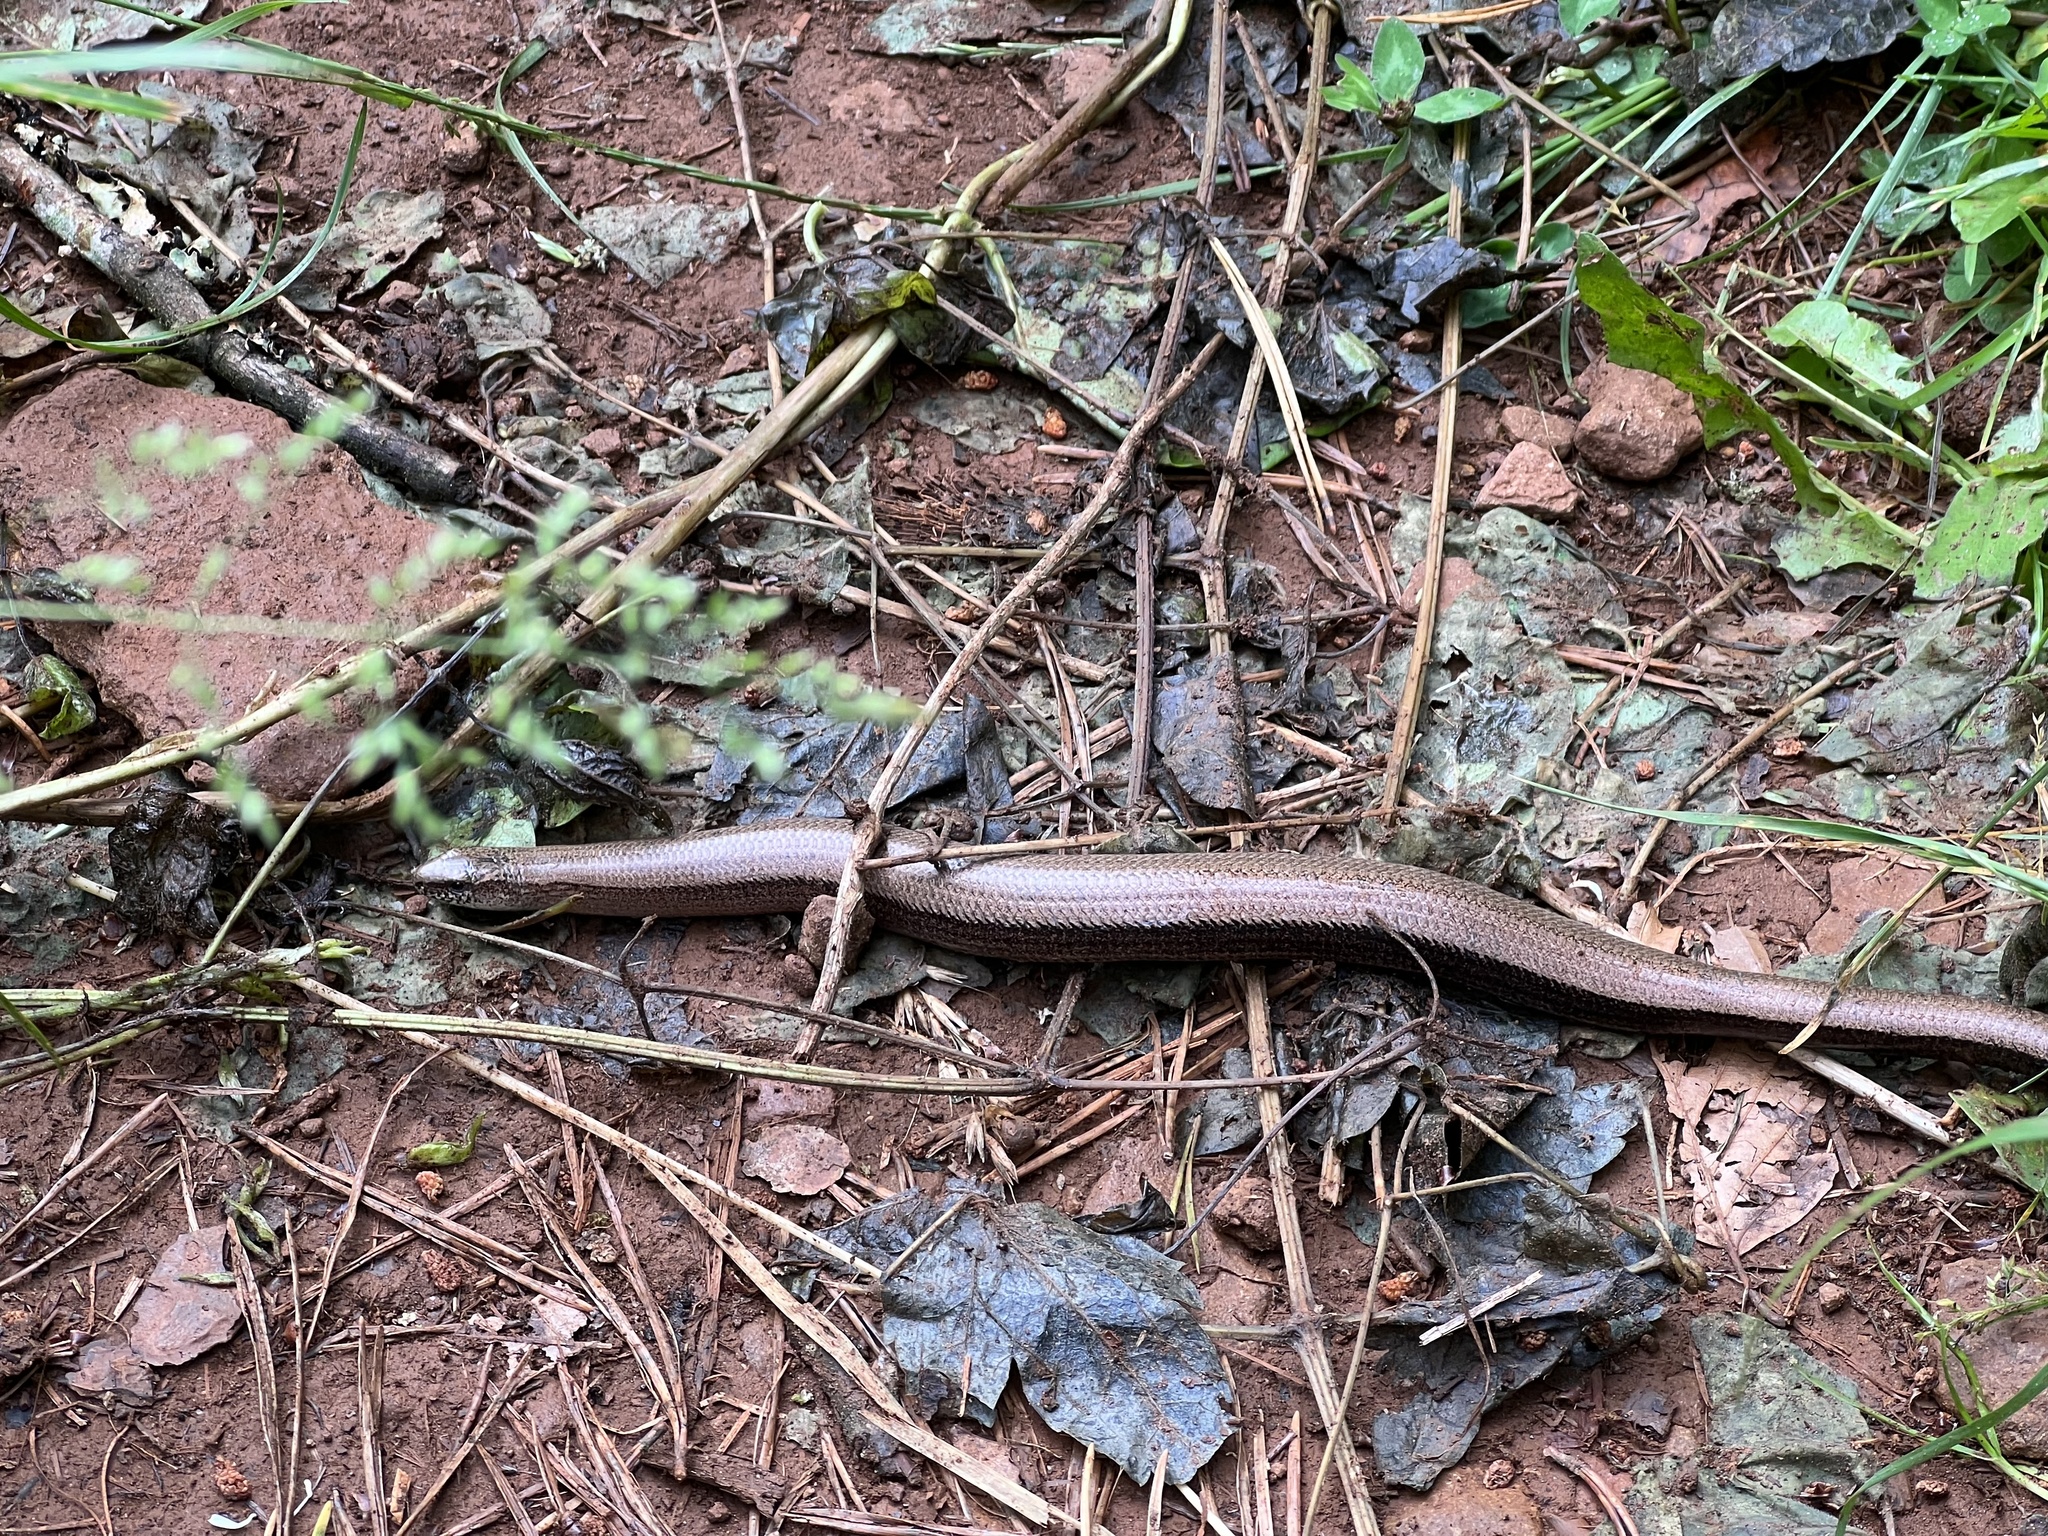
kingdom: Animalia
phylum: Chordata
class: Squamata
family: Anguidae
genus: Anguis
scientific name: Anguis fragilis
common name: Slow worm
